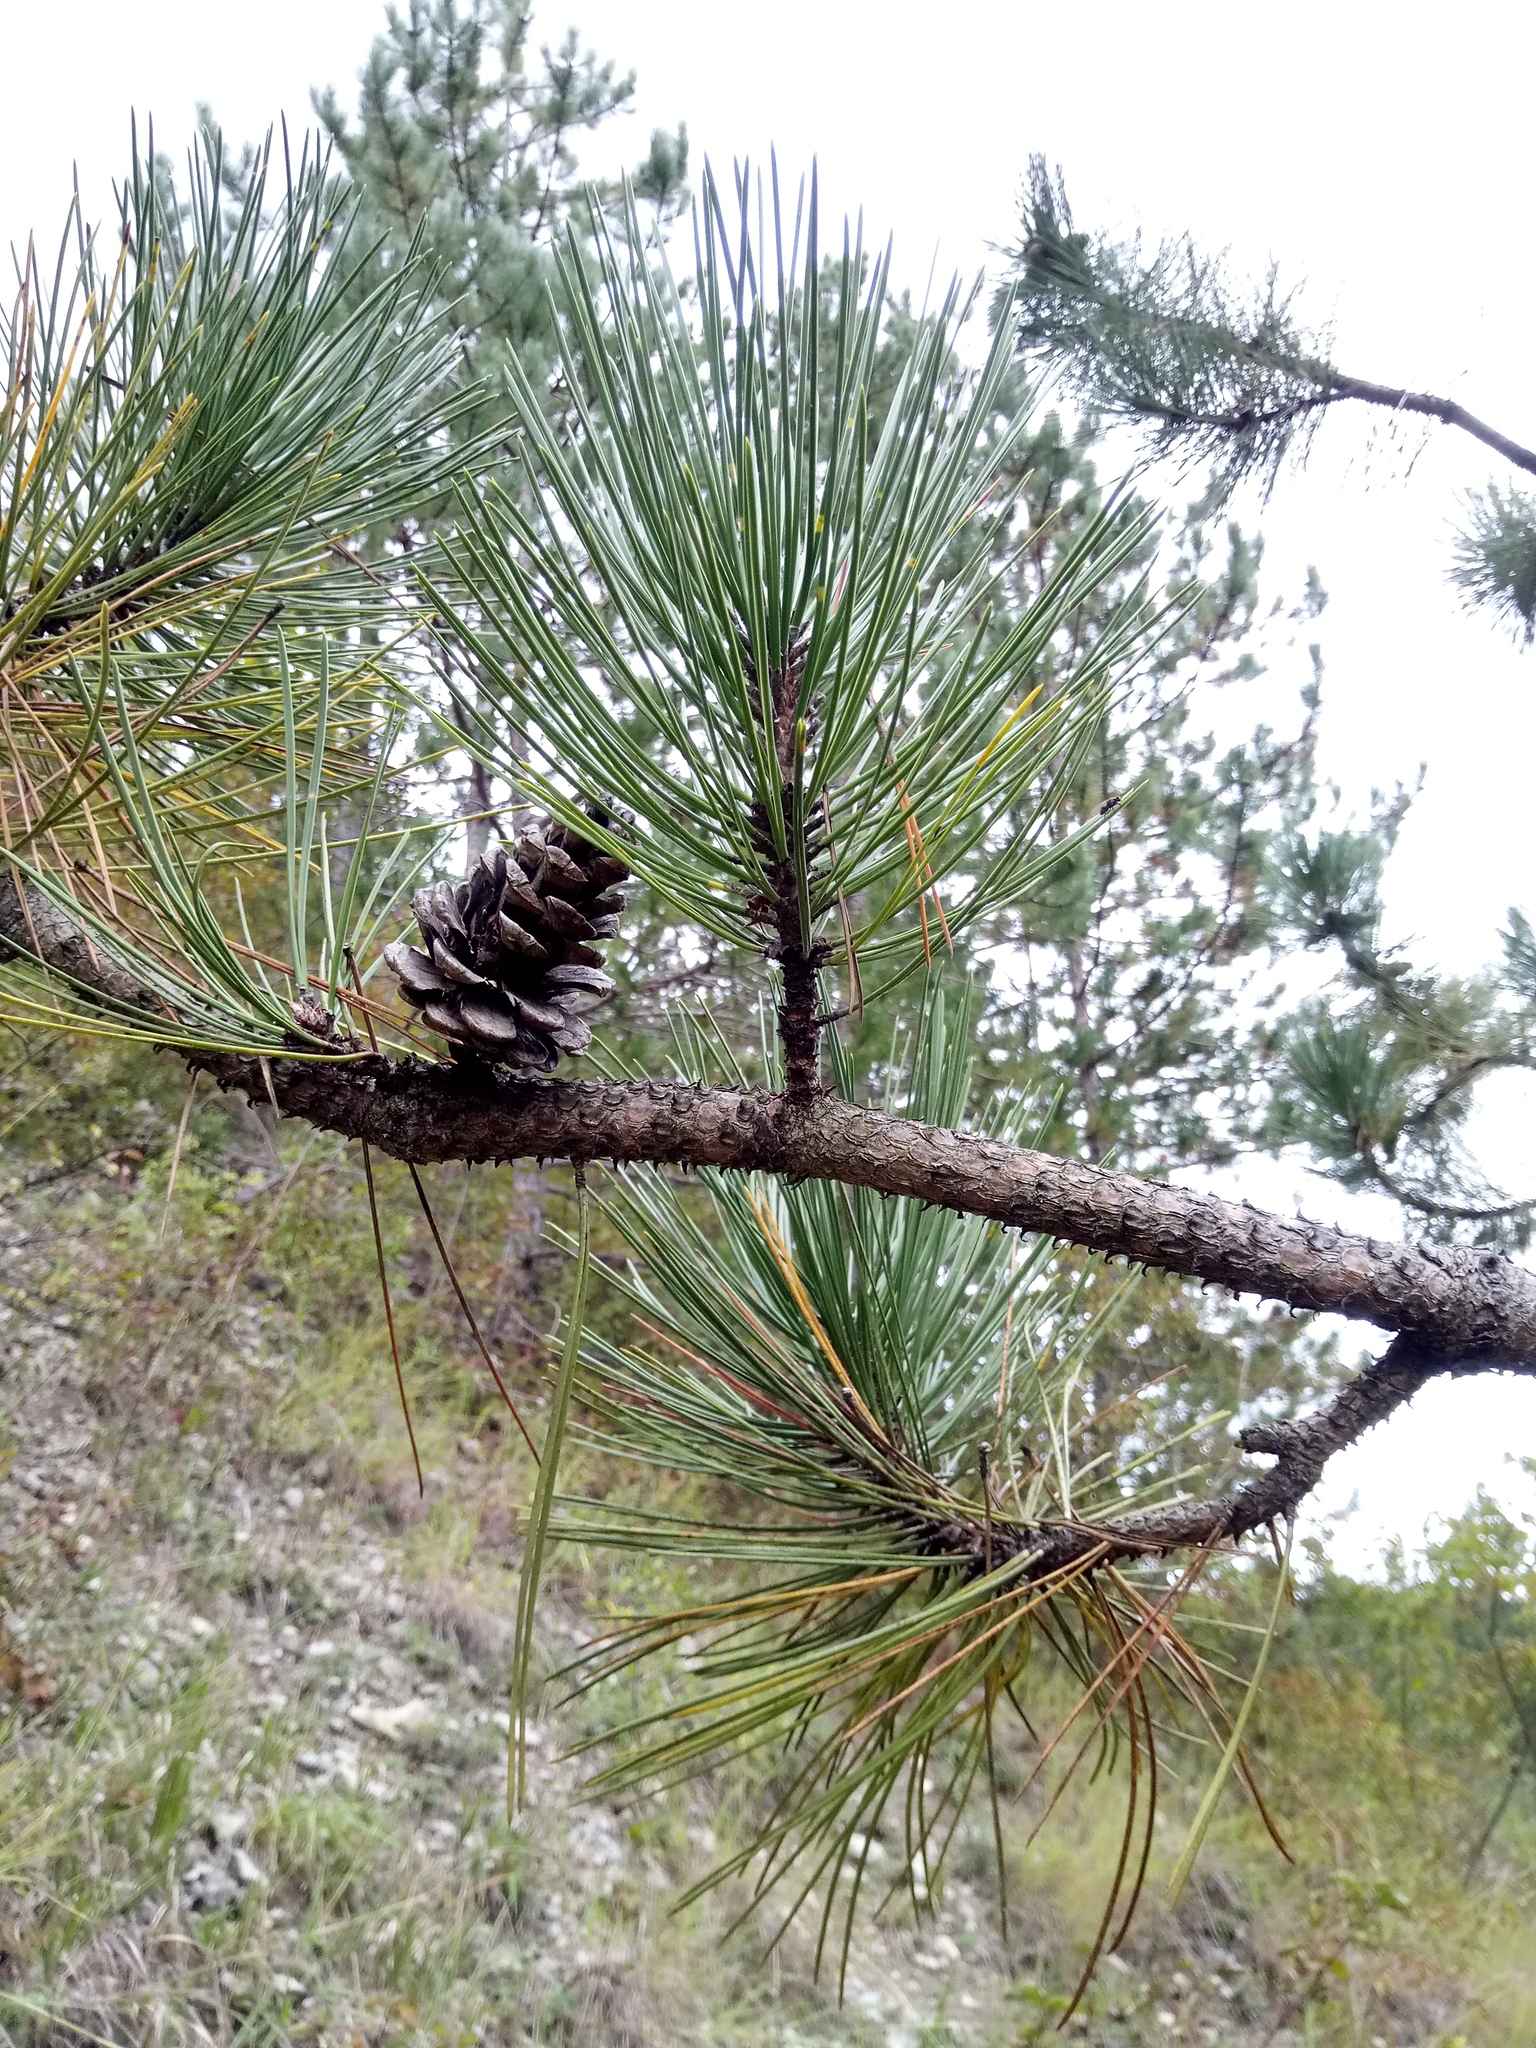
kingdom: Plantae
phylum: Tracheophyta
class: Pinopsida
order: Pinales
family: Pinaceae
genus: Pinus
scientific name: Pinus nigra
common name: Austrian pine
